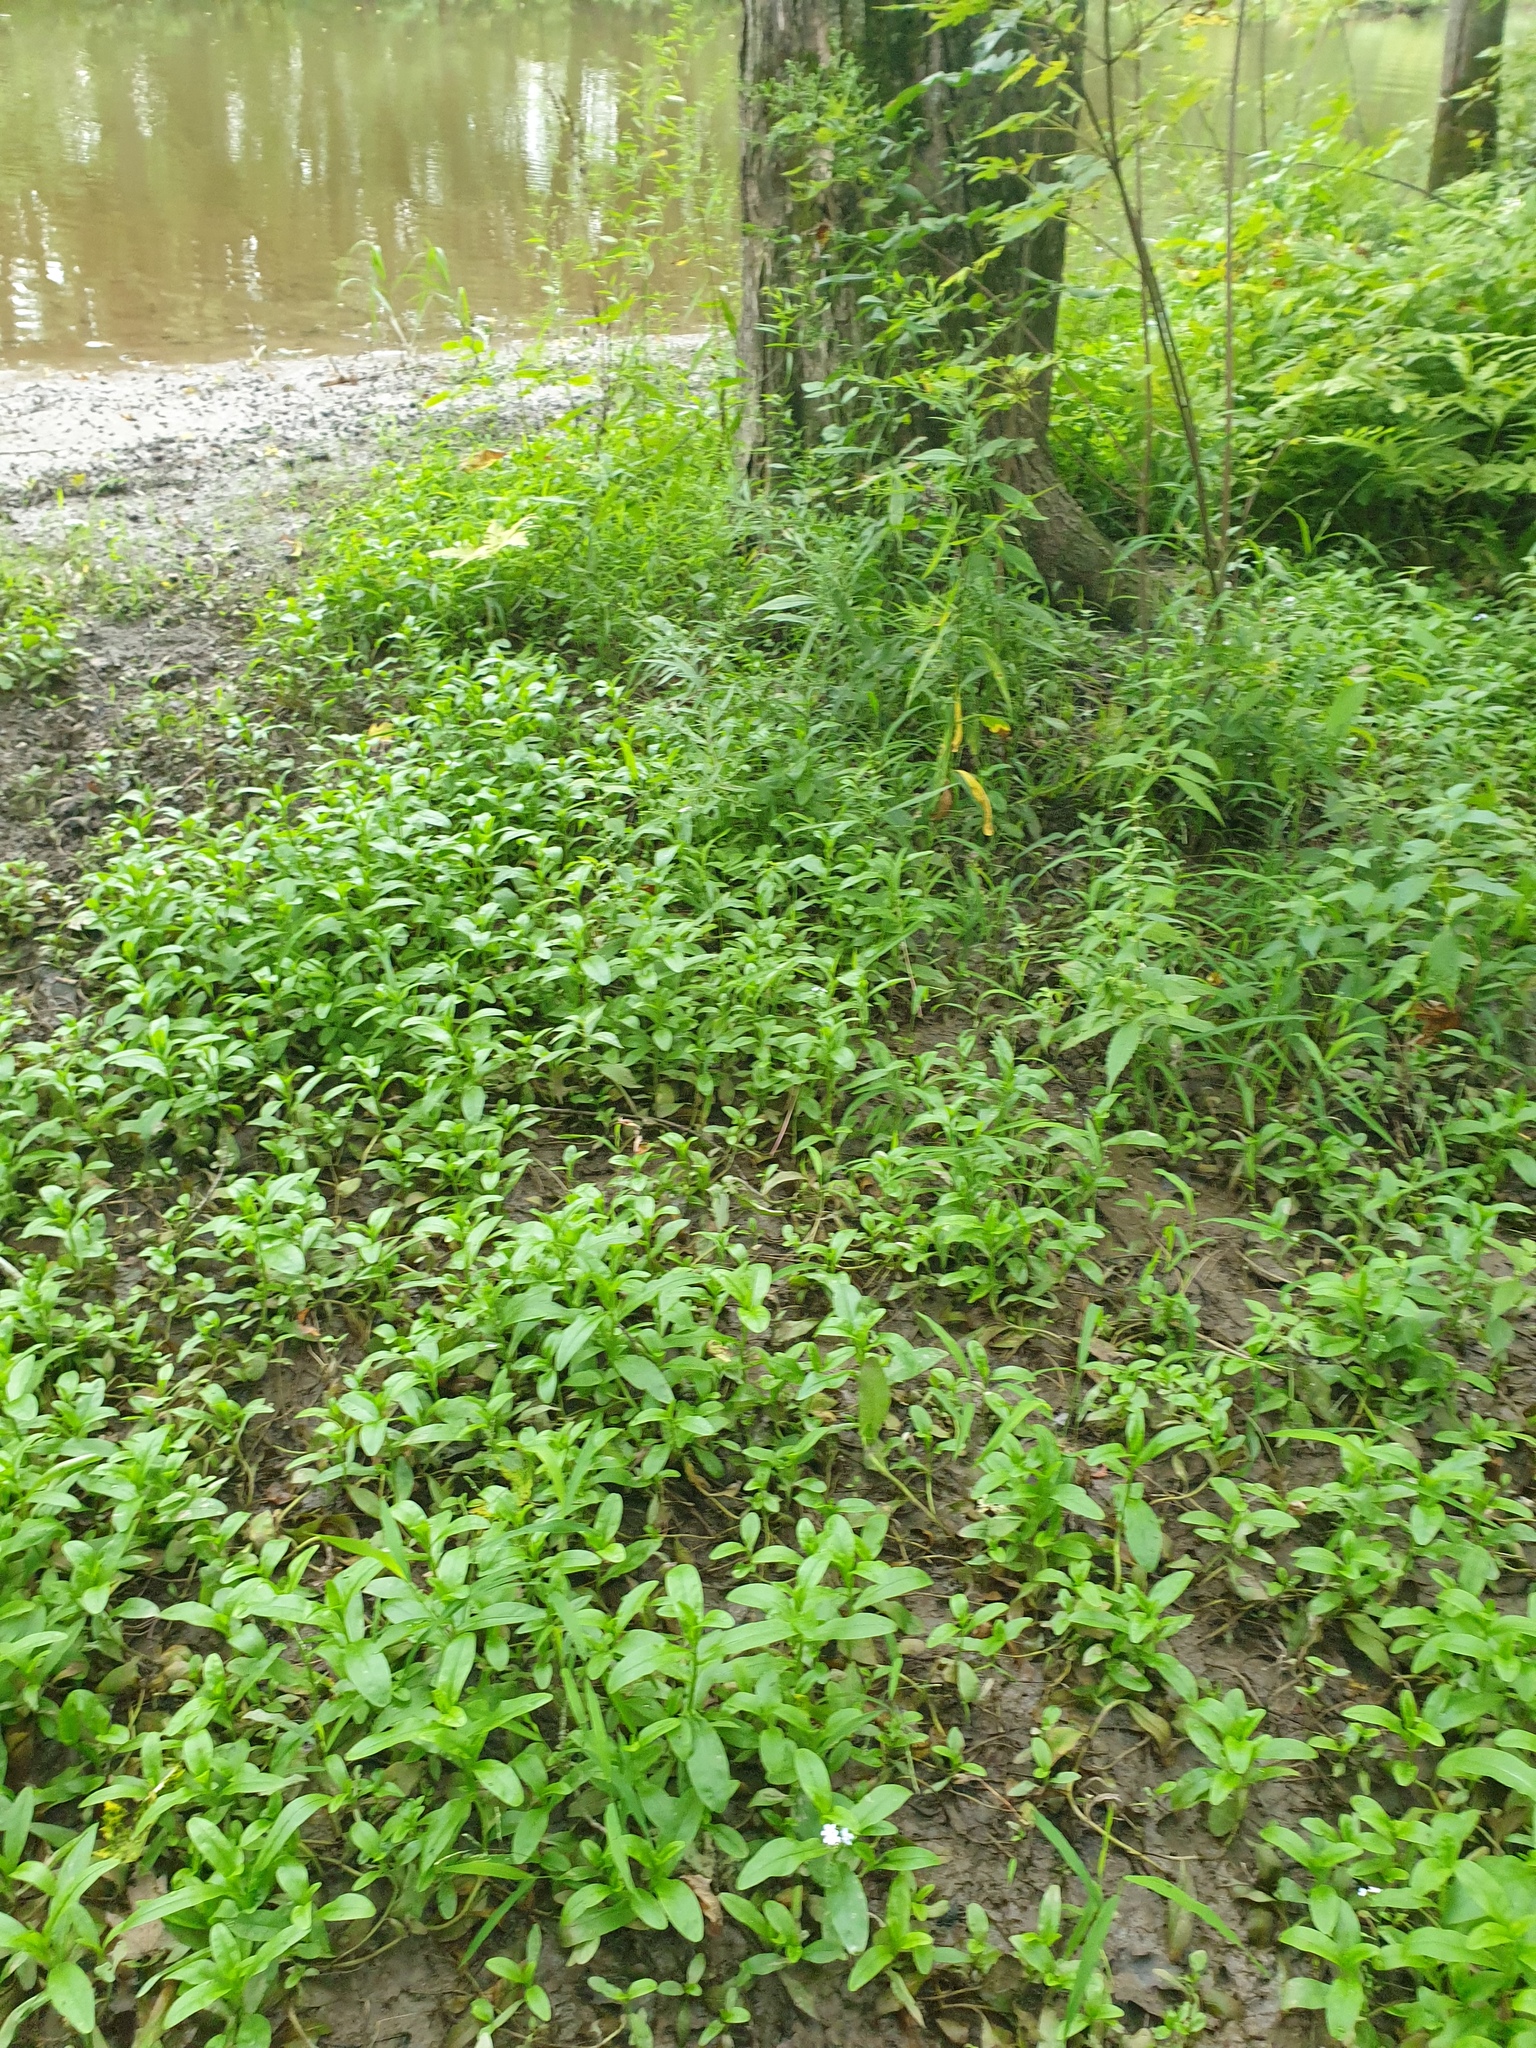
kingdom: Plantae
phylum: Tracheophyta
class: Magnoliopsida
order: Boraginales
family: Boraginaceae
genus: Myosotis
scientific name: Myosotis scorpioides
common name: Water forget-me-not
